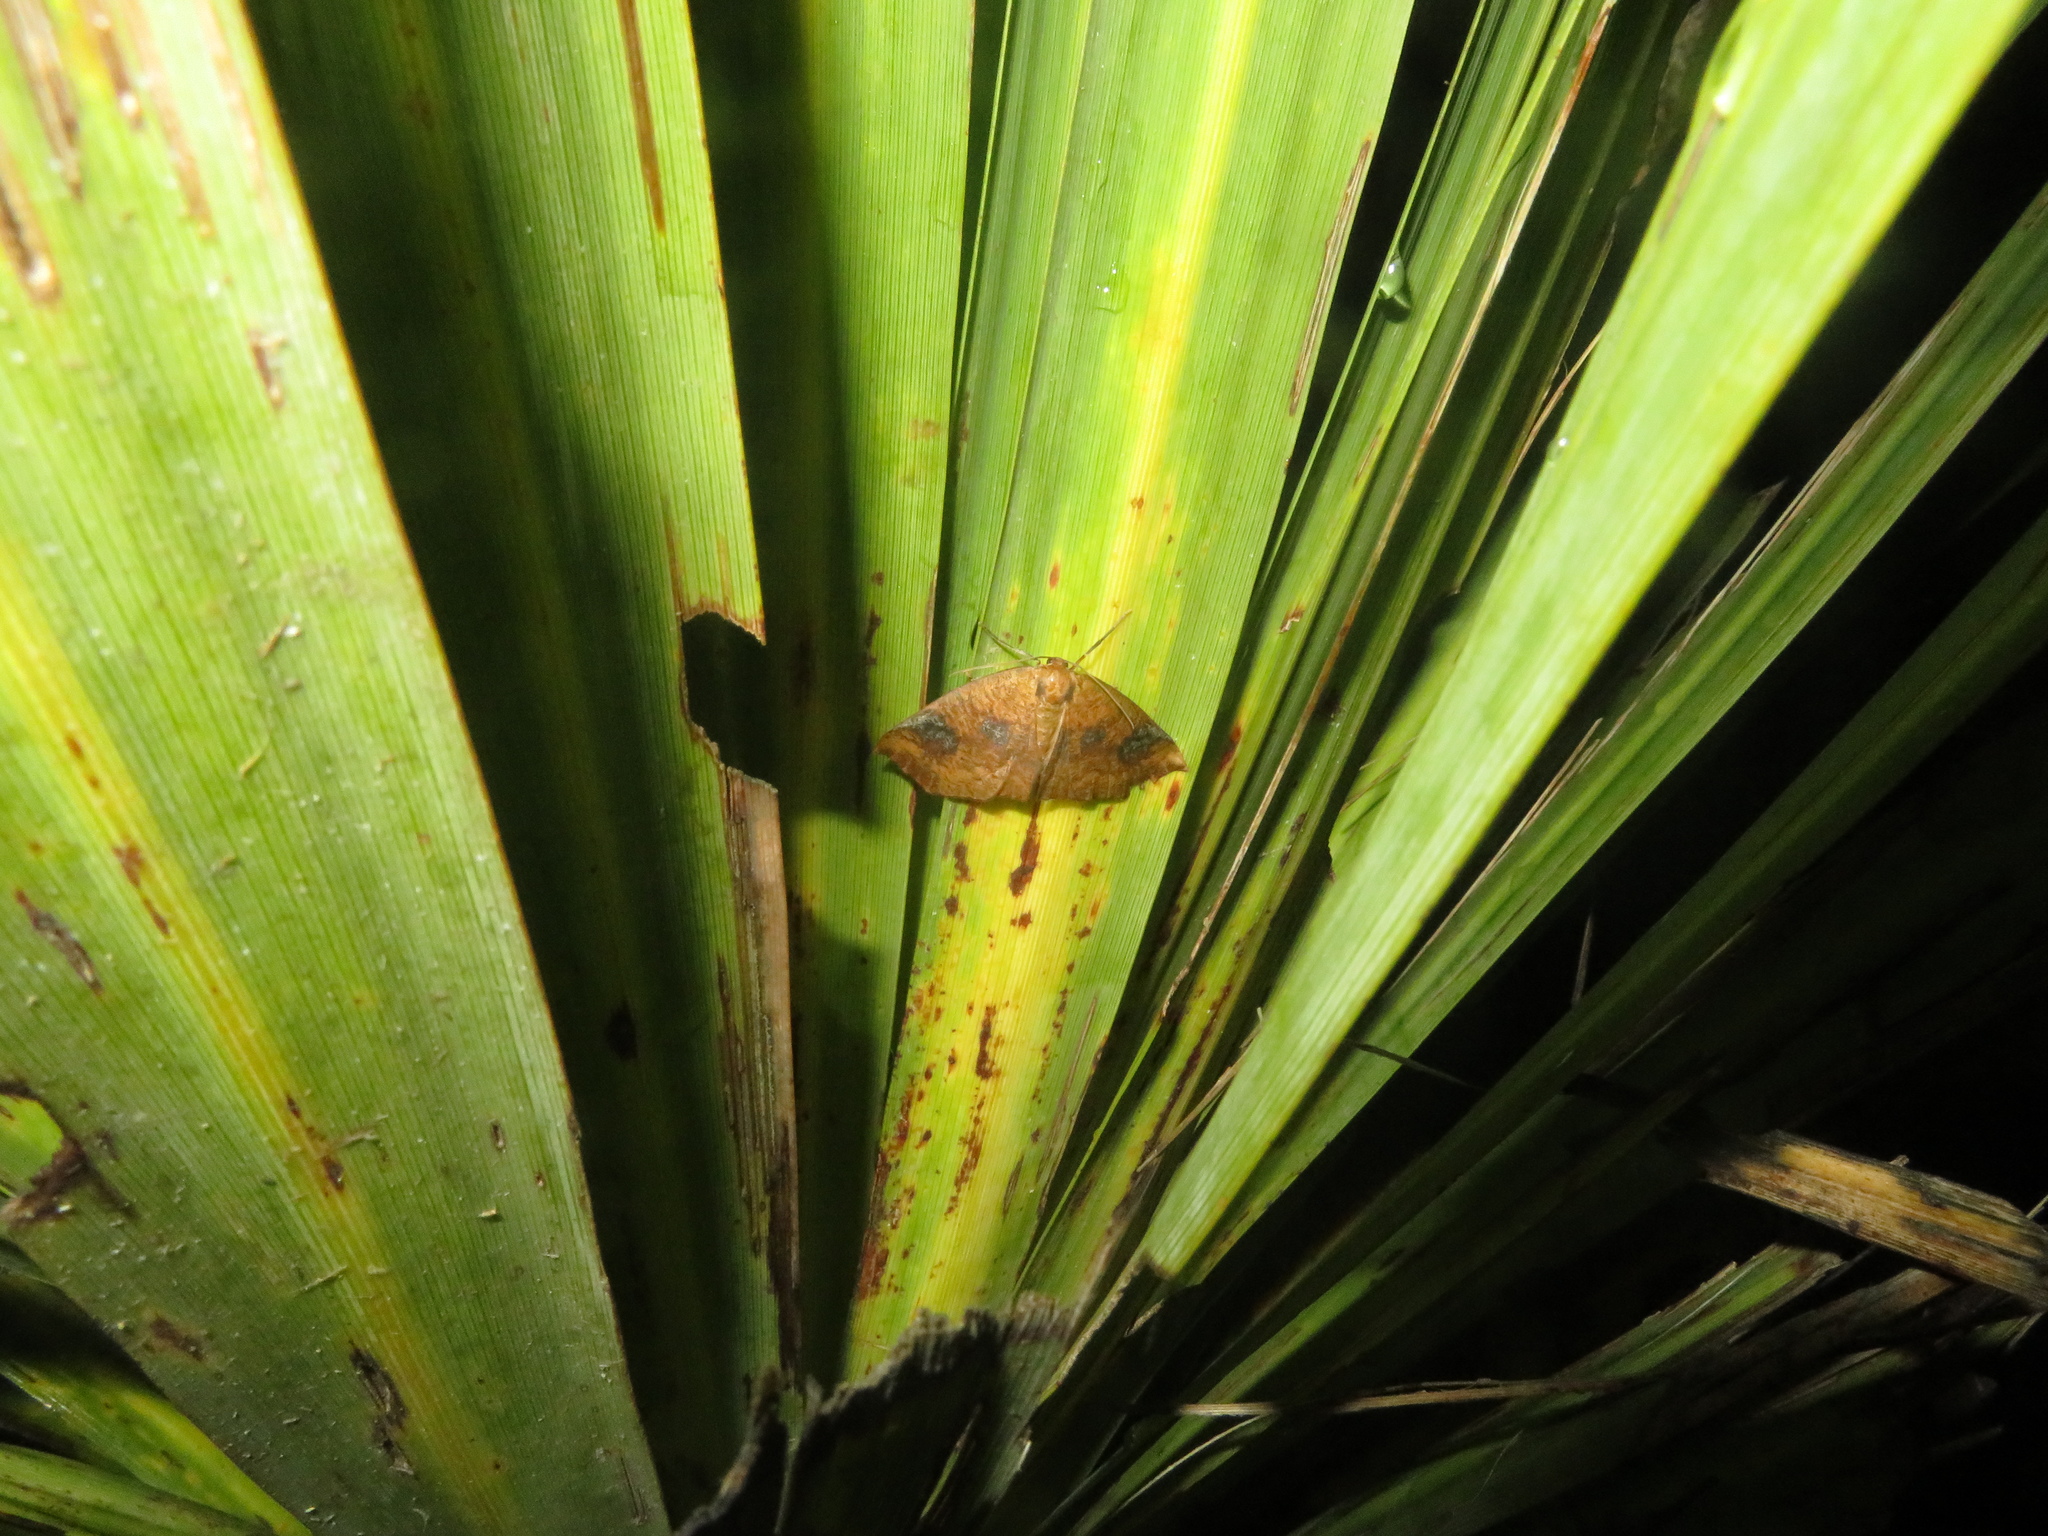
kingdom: Animalia
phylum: Arthropoda
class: Insecta
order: Lepidoptera
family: Geometridae
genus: Xyridacma
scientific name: Xyridacma ustaria
